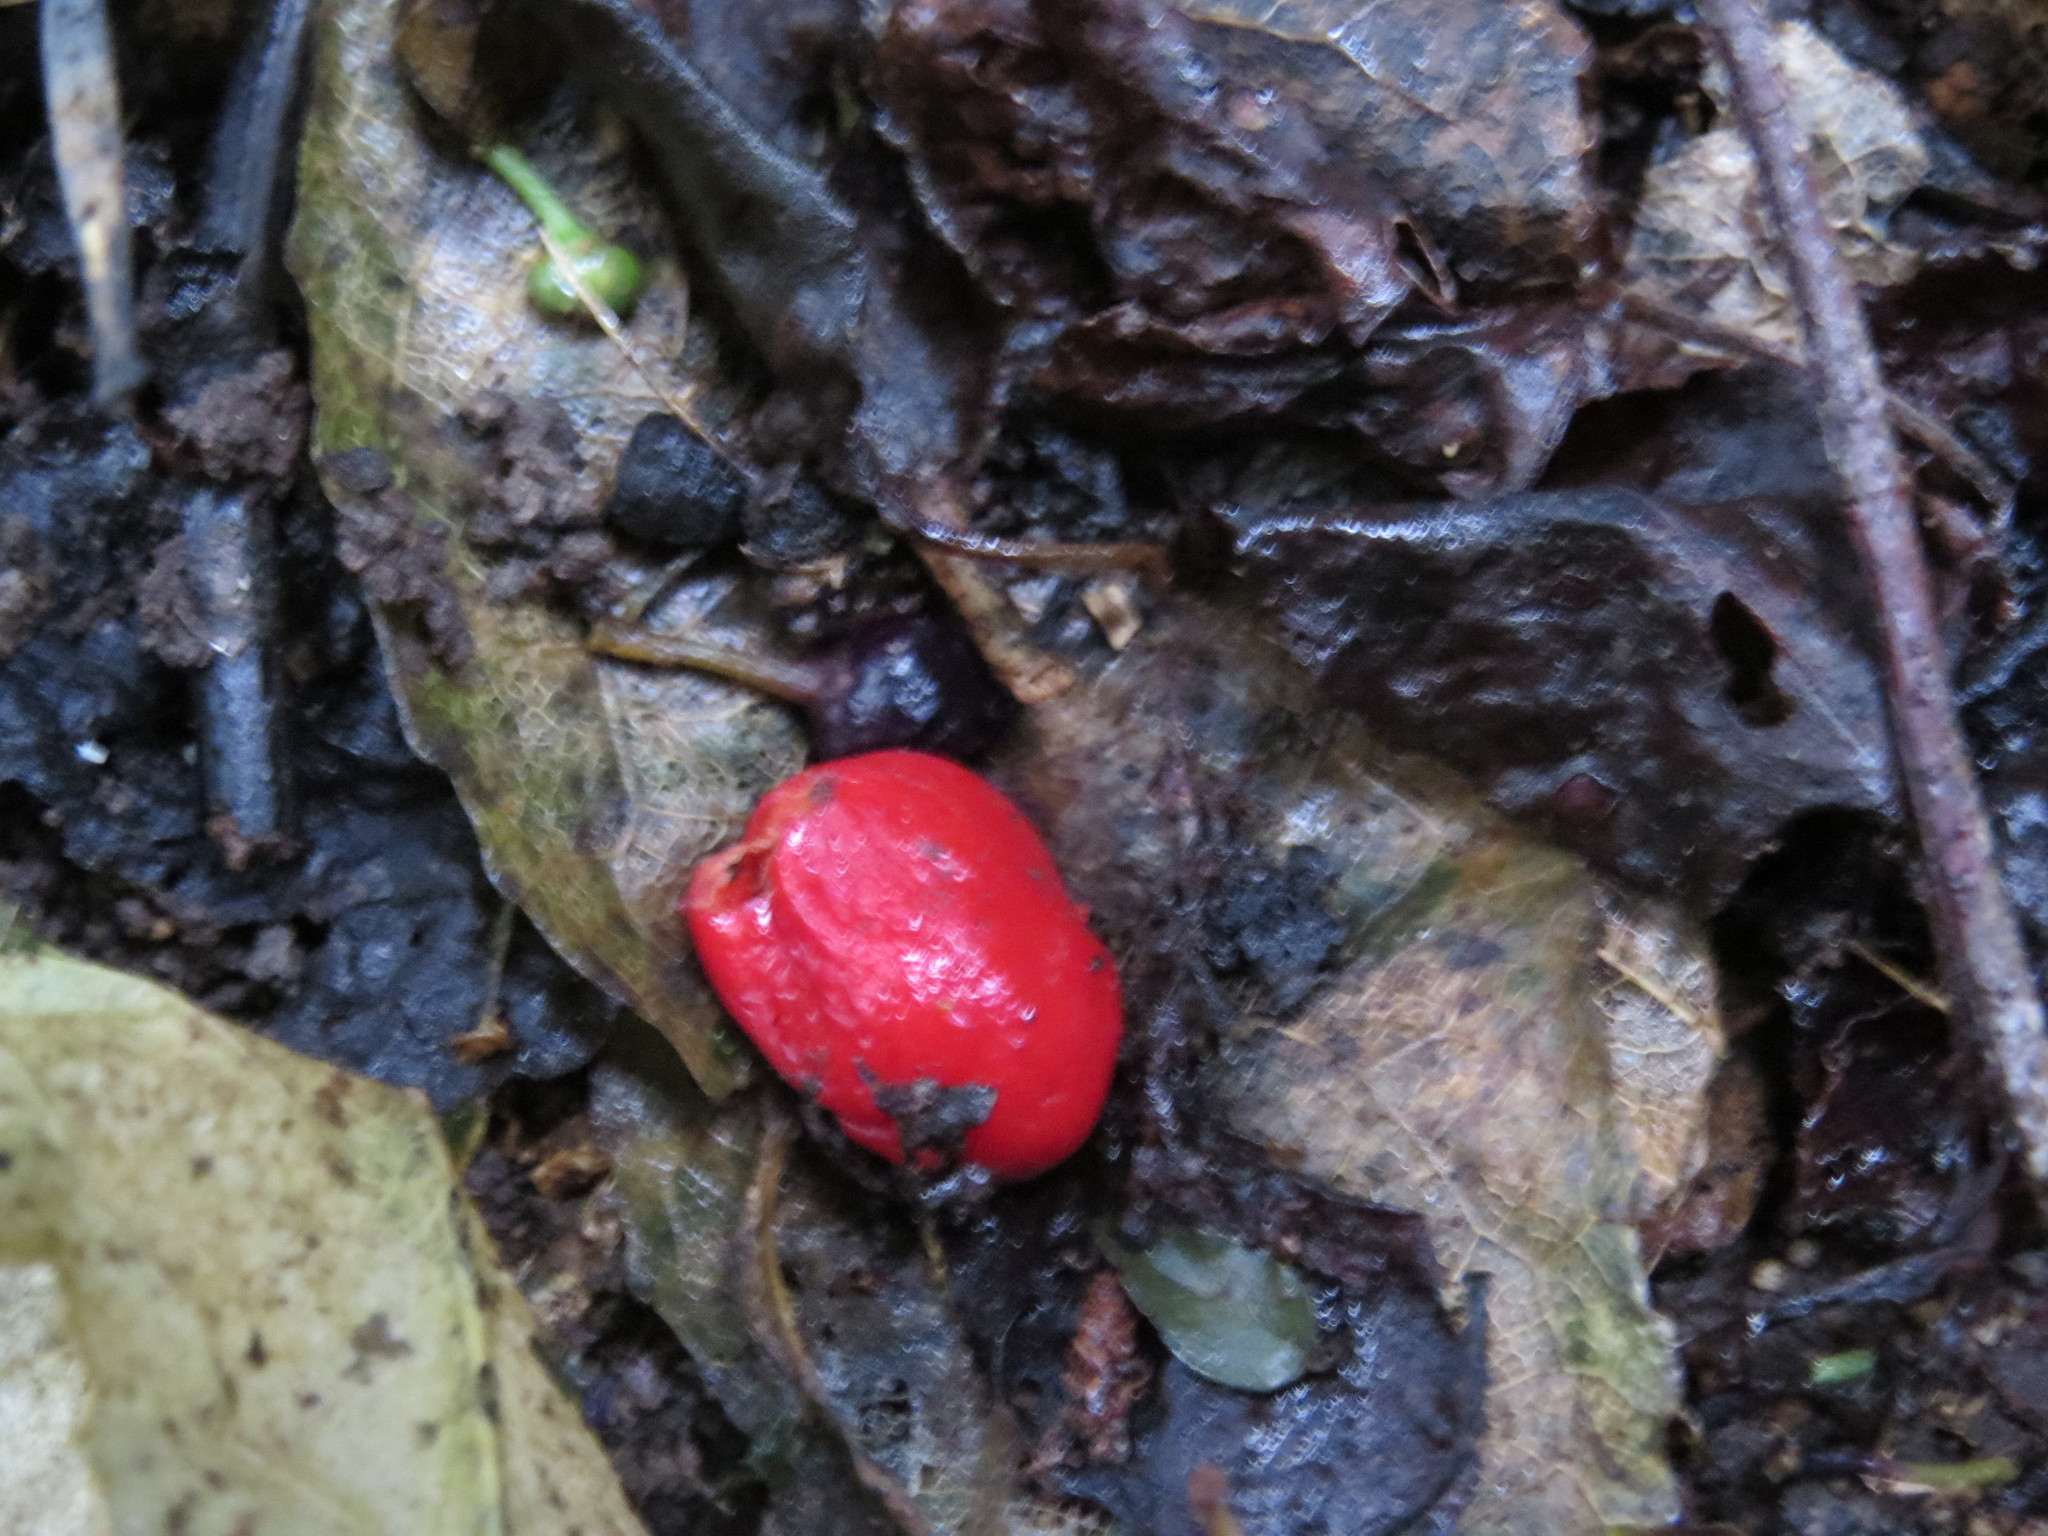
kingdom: Fungi
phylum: Ascomycota
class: Pezizomycetes
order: Pezizales
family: Pyronemataceae
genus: Paurocotylis
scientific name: Paurocotylis pila
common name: Scarlet berry truffle
